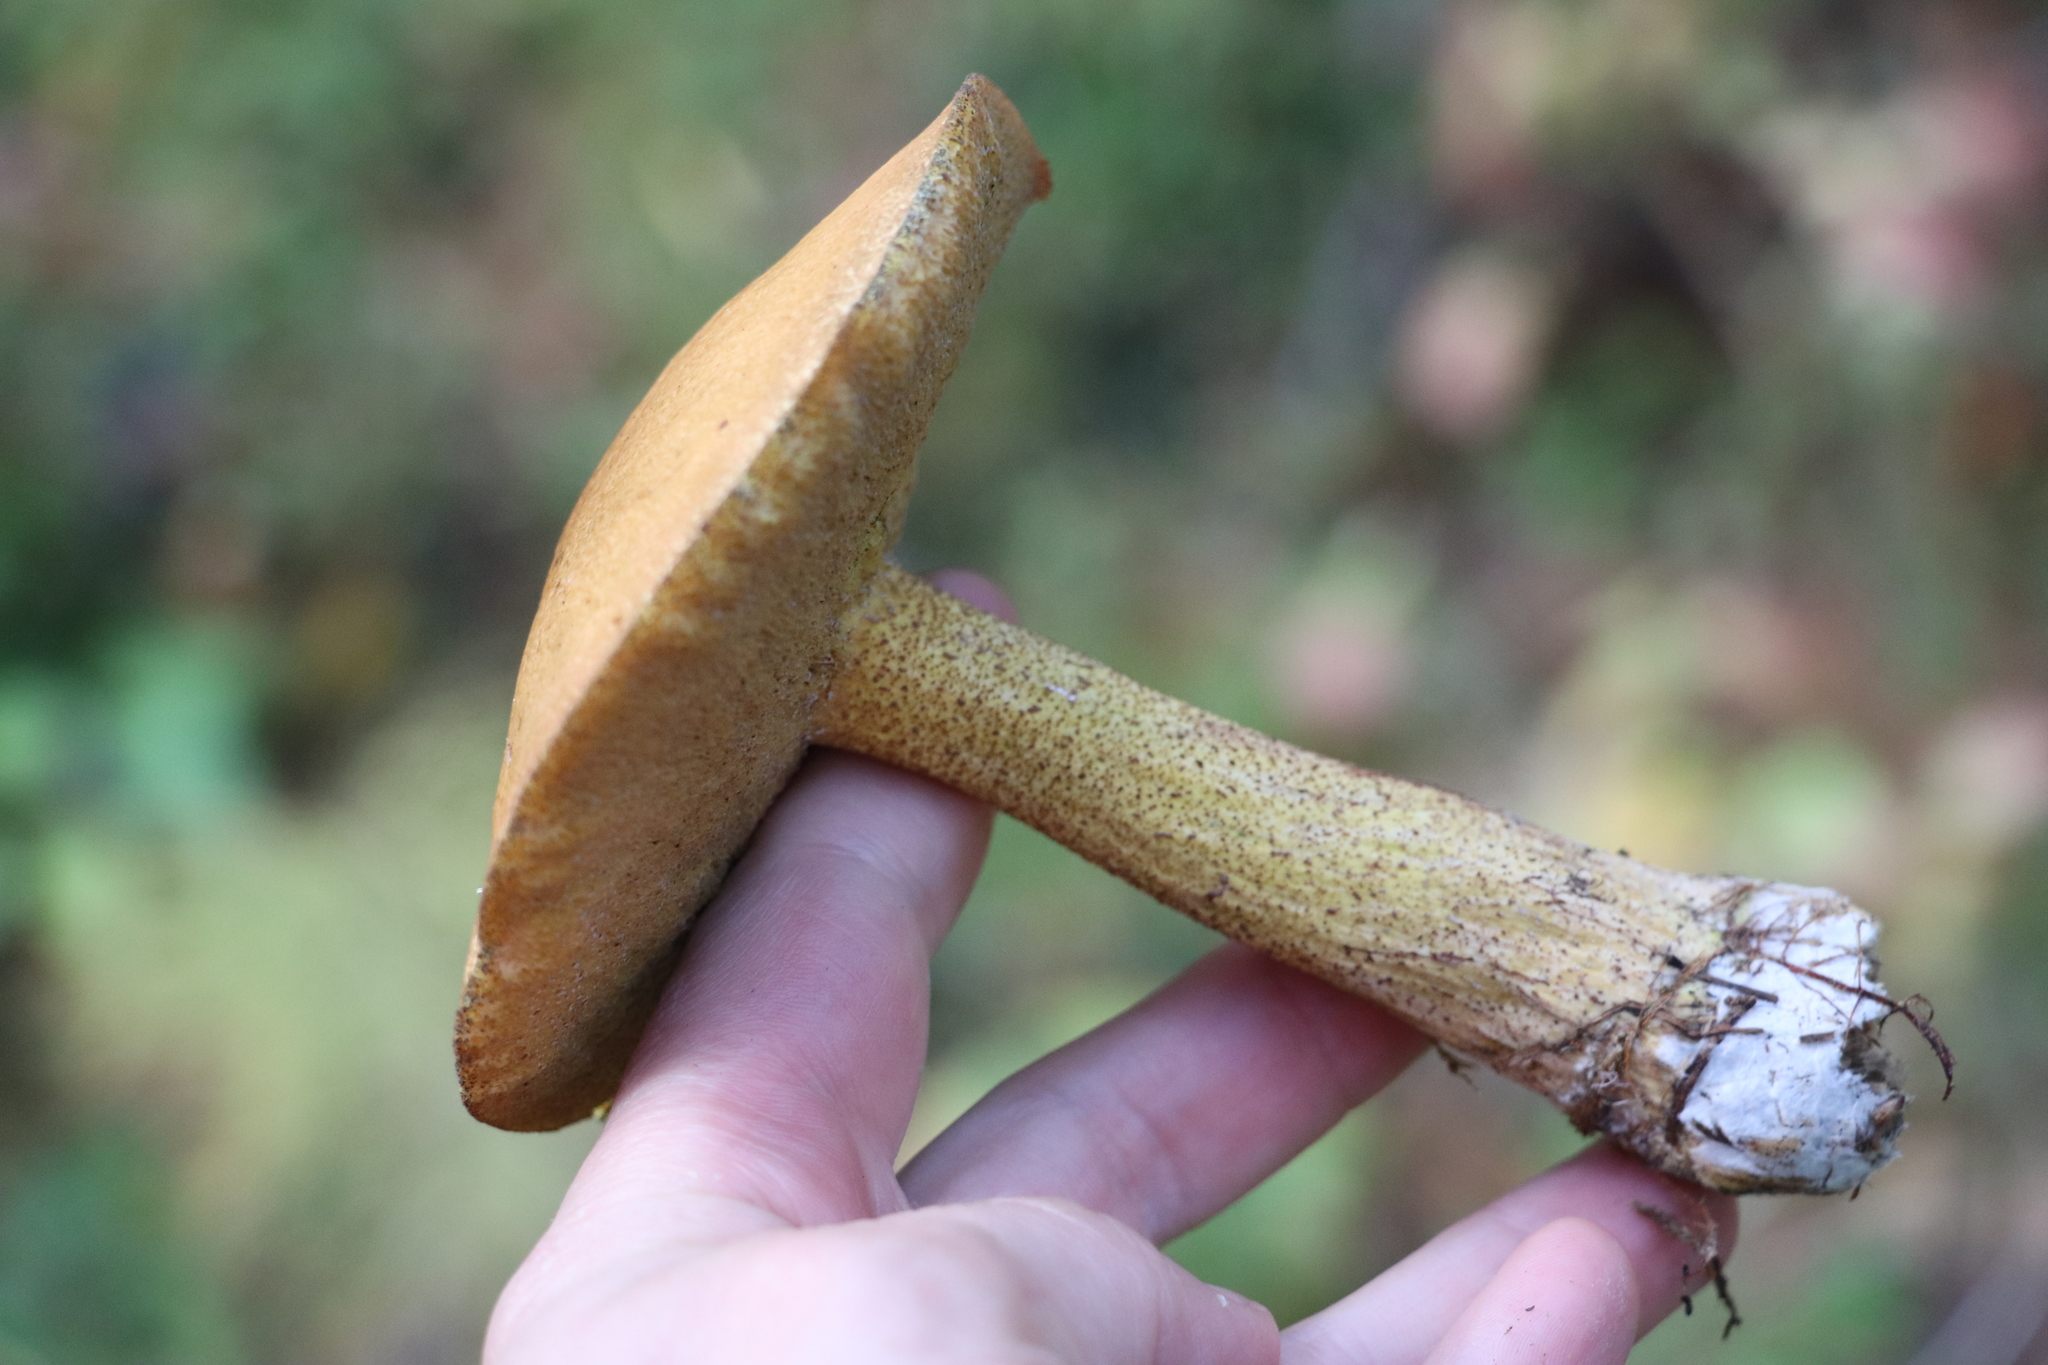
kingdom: Fungi
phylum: Basidiomycota
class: Agaricomycetes
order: Boletales
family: Suillaceae
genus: Suillus
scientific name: Suillus punctipes
